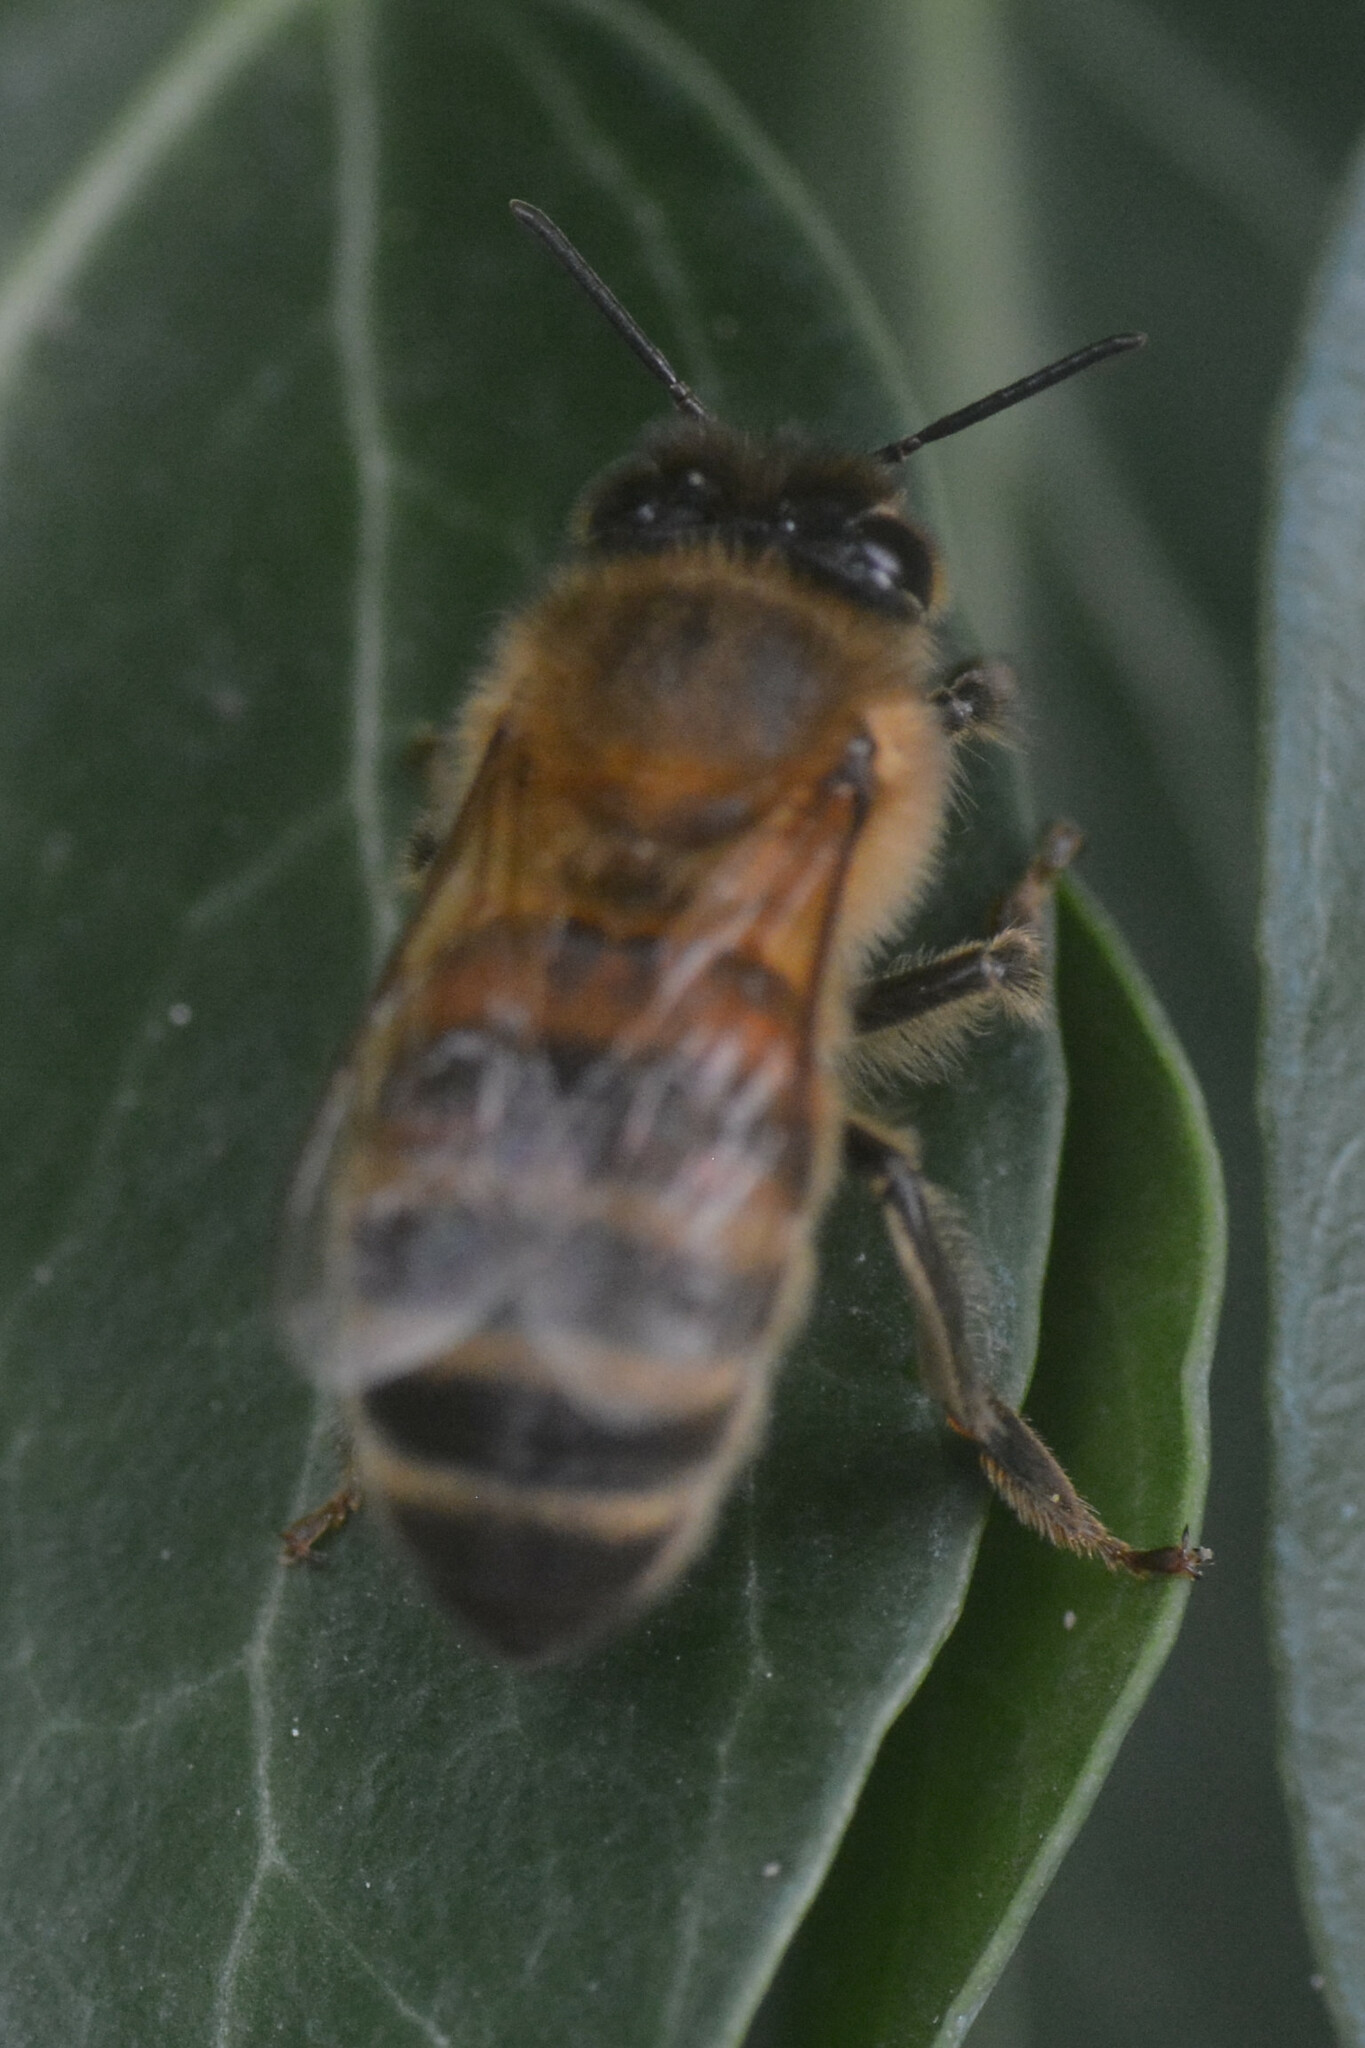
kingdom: Animalia
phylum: Arthropoda
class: Insecta
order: Hymenoptera
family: Apidae
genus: Apis
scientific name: Apis mellifera
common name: Honey bee
